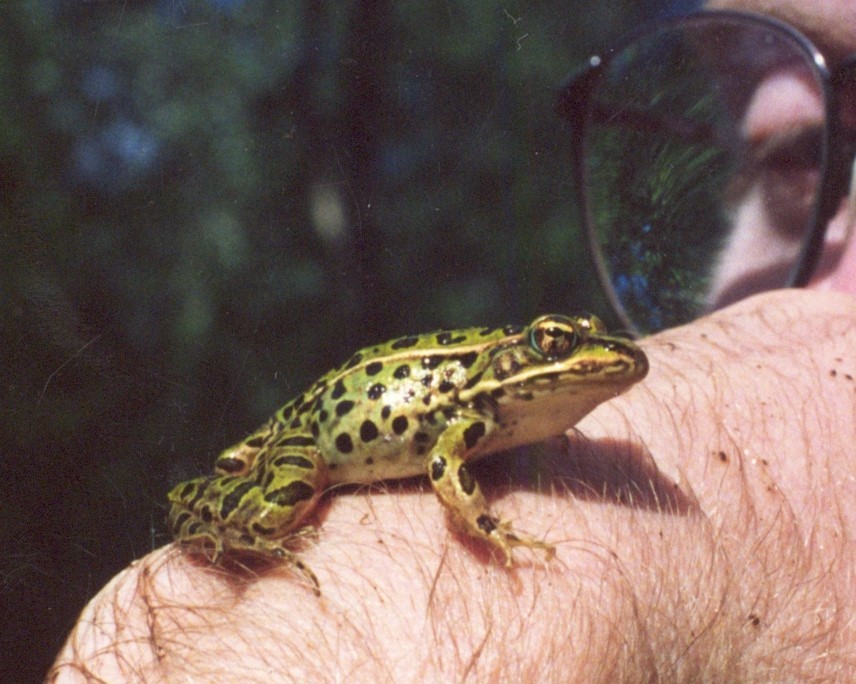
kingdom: Animalia
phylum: Chordata
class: Amphibia
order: Anura
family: Ranidae
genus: Lithobates
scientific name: Lithobates pipiens
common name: Northern leopard frog
